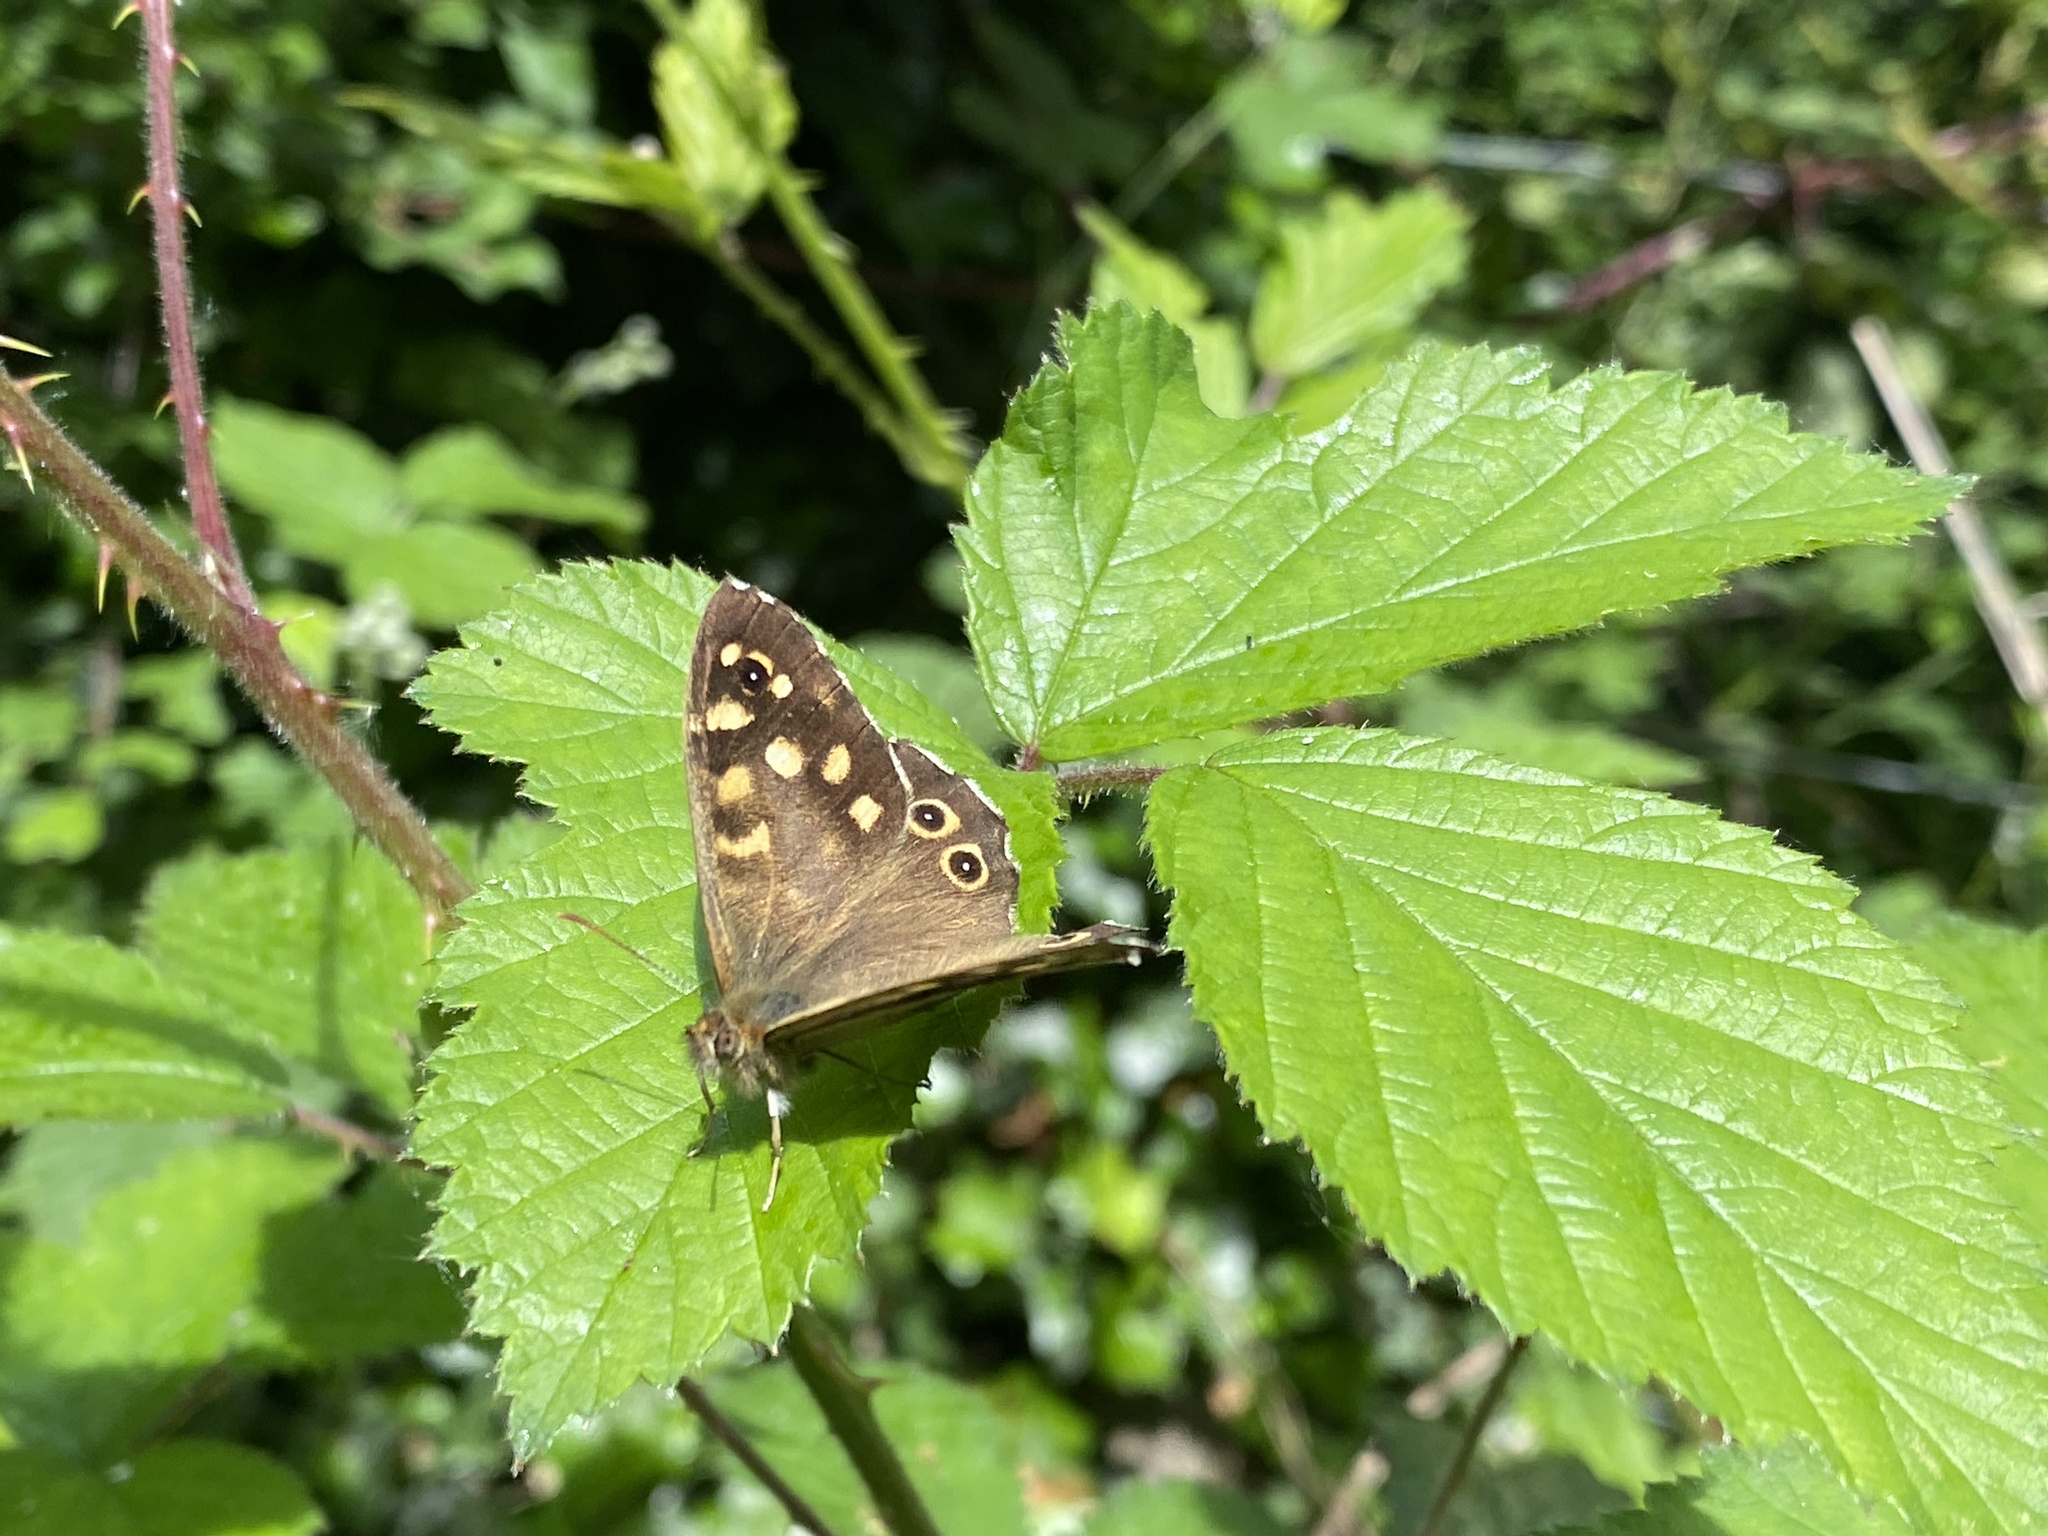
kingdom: Animalia
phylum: Arthropoda
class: Insecta
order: Lepidoptera
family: Nymphalidae
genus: Pararge
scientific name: Pararge aegeria
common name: Speckled wood
